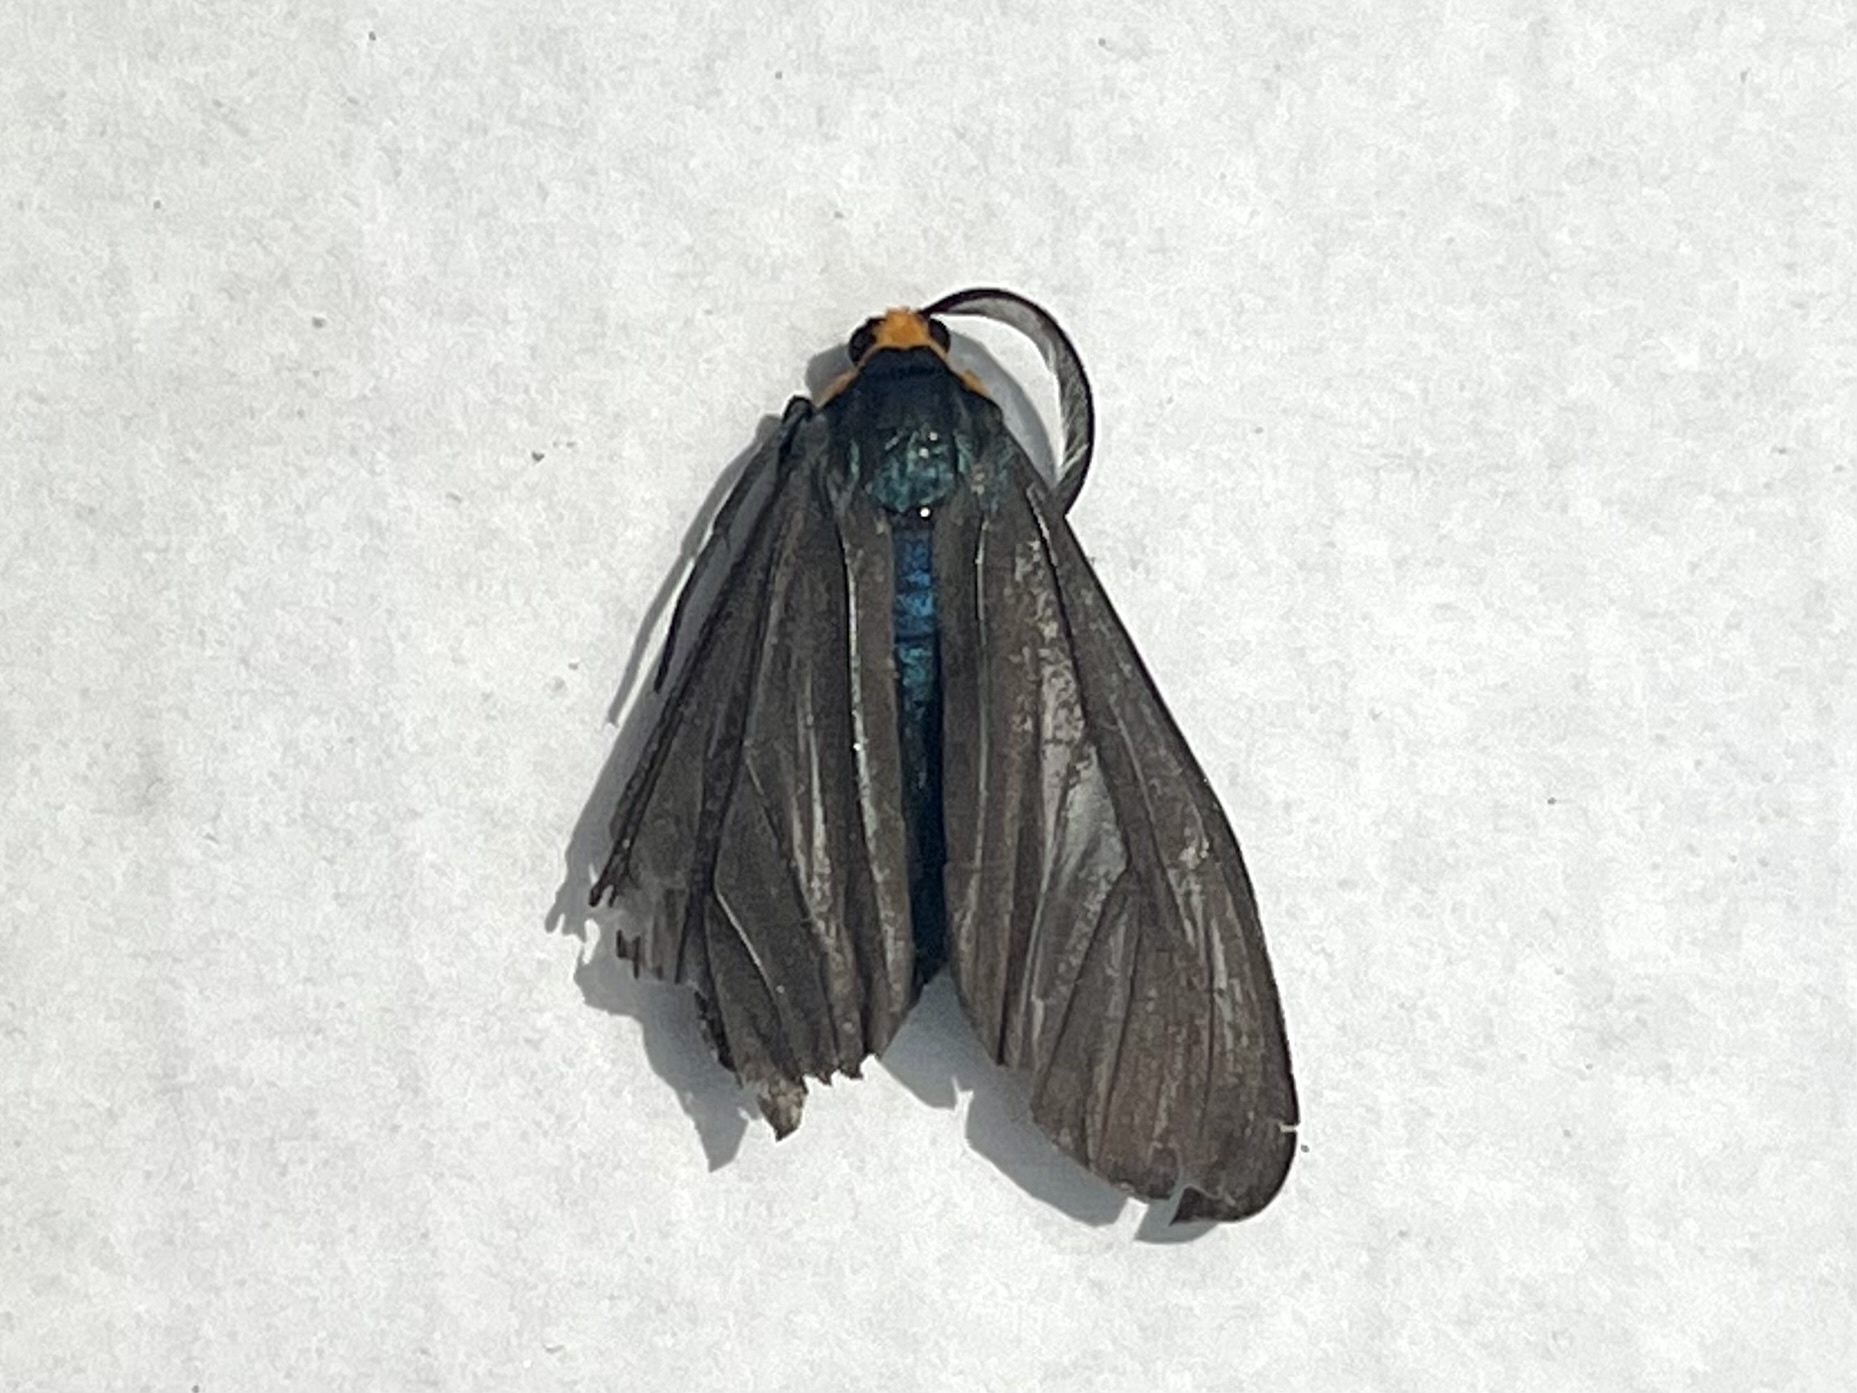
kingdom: Animalia
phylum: Arthropoda
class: Insecta
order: Lepidoptera
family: Erebidae
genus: Ctenucha
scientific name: Ctenucha virginica
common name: Virginia ctenucha moth
